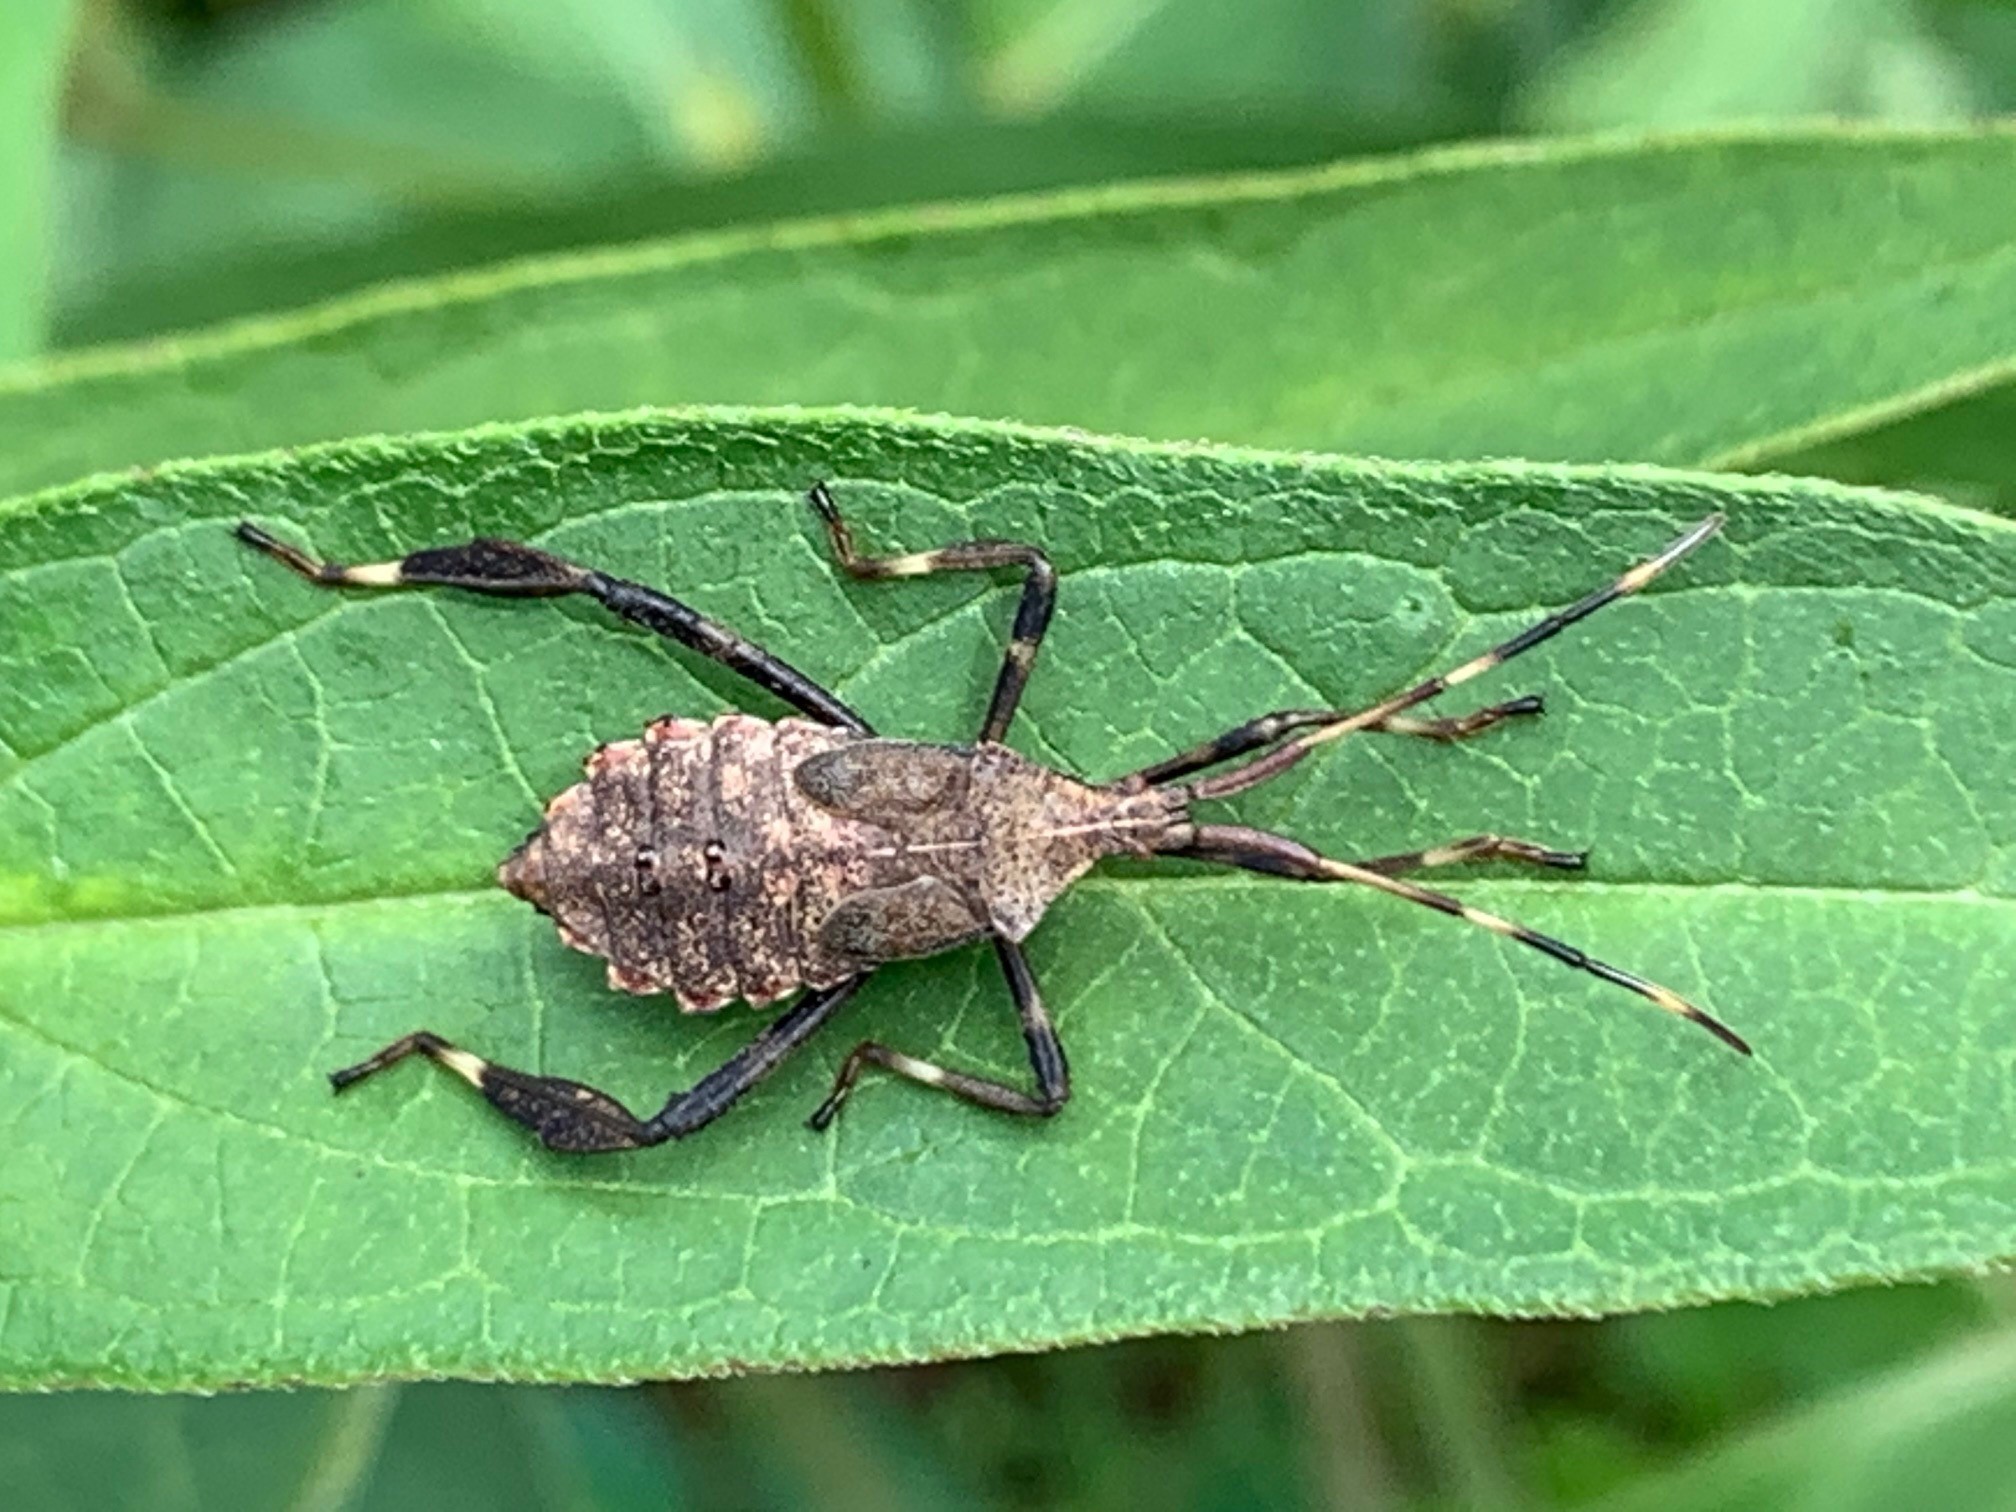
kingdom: Animalia
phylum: Arthropoda
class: Insecta
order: Hemiptera
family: Coreidae
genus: Acanthocephala
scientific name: Acanthocephala terminalis
